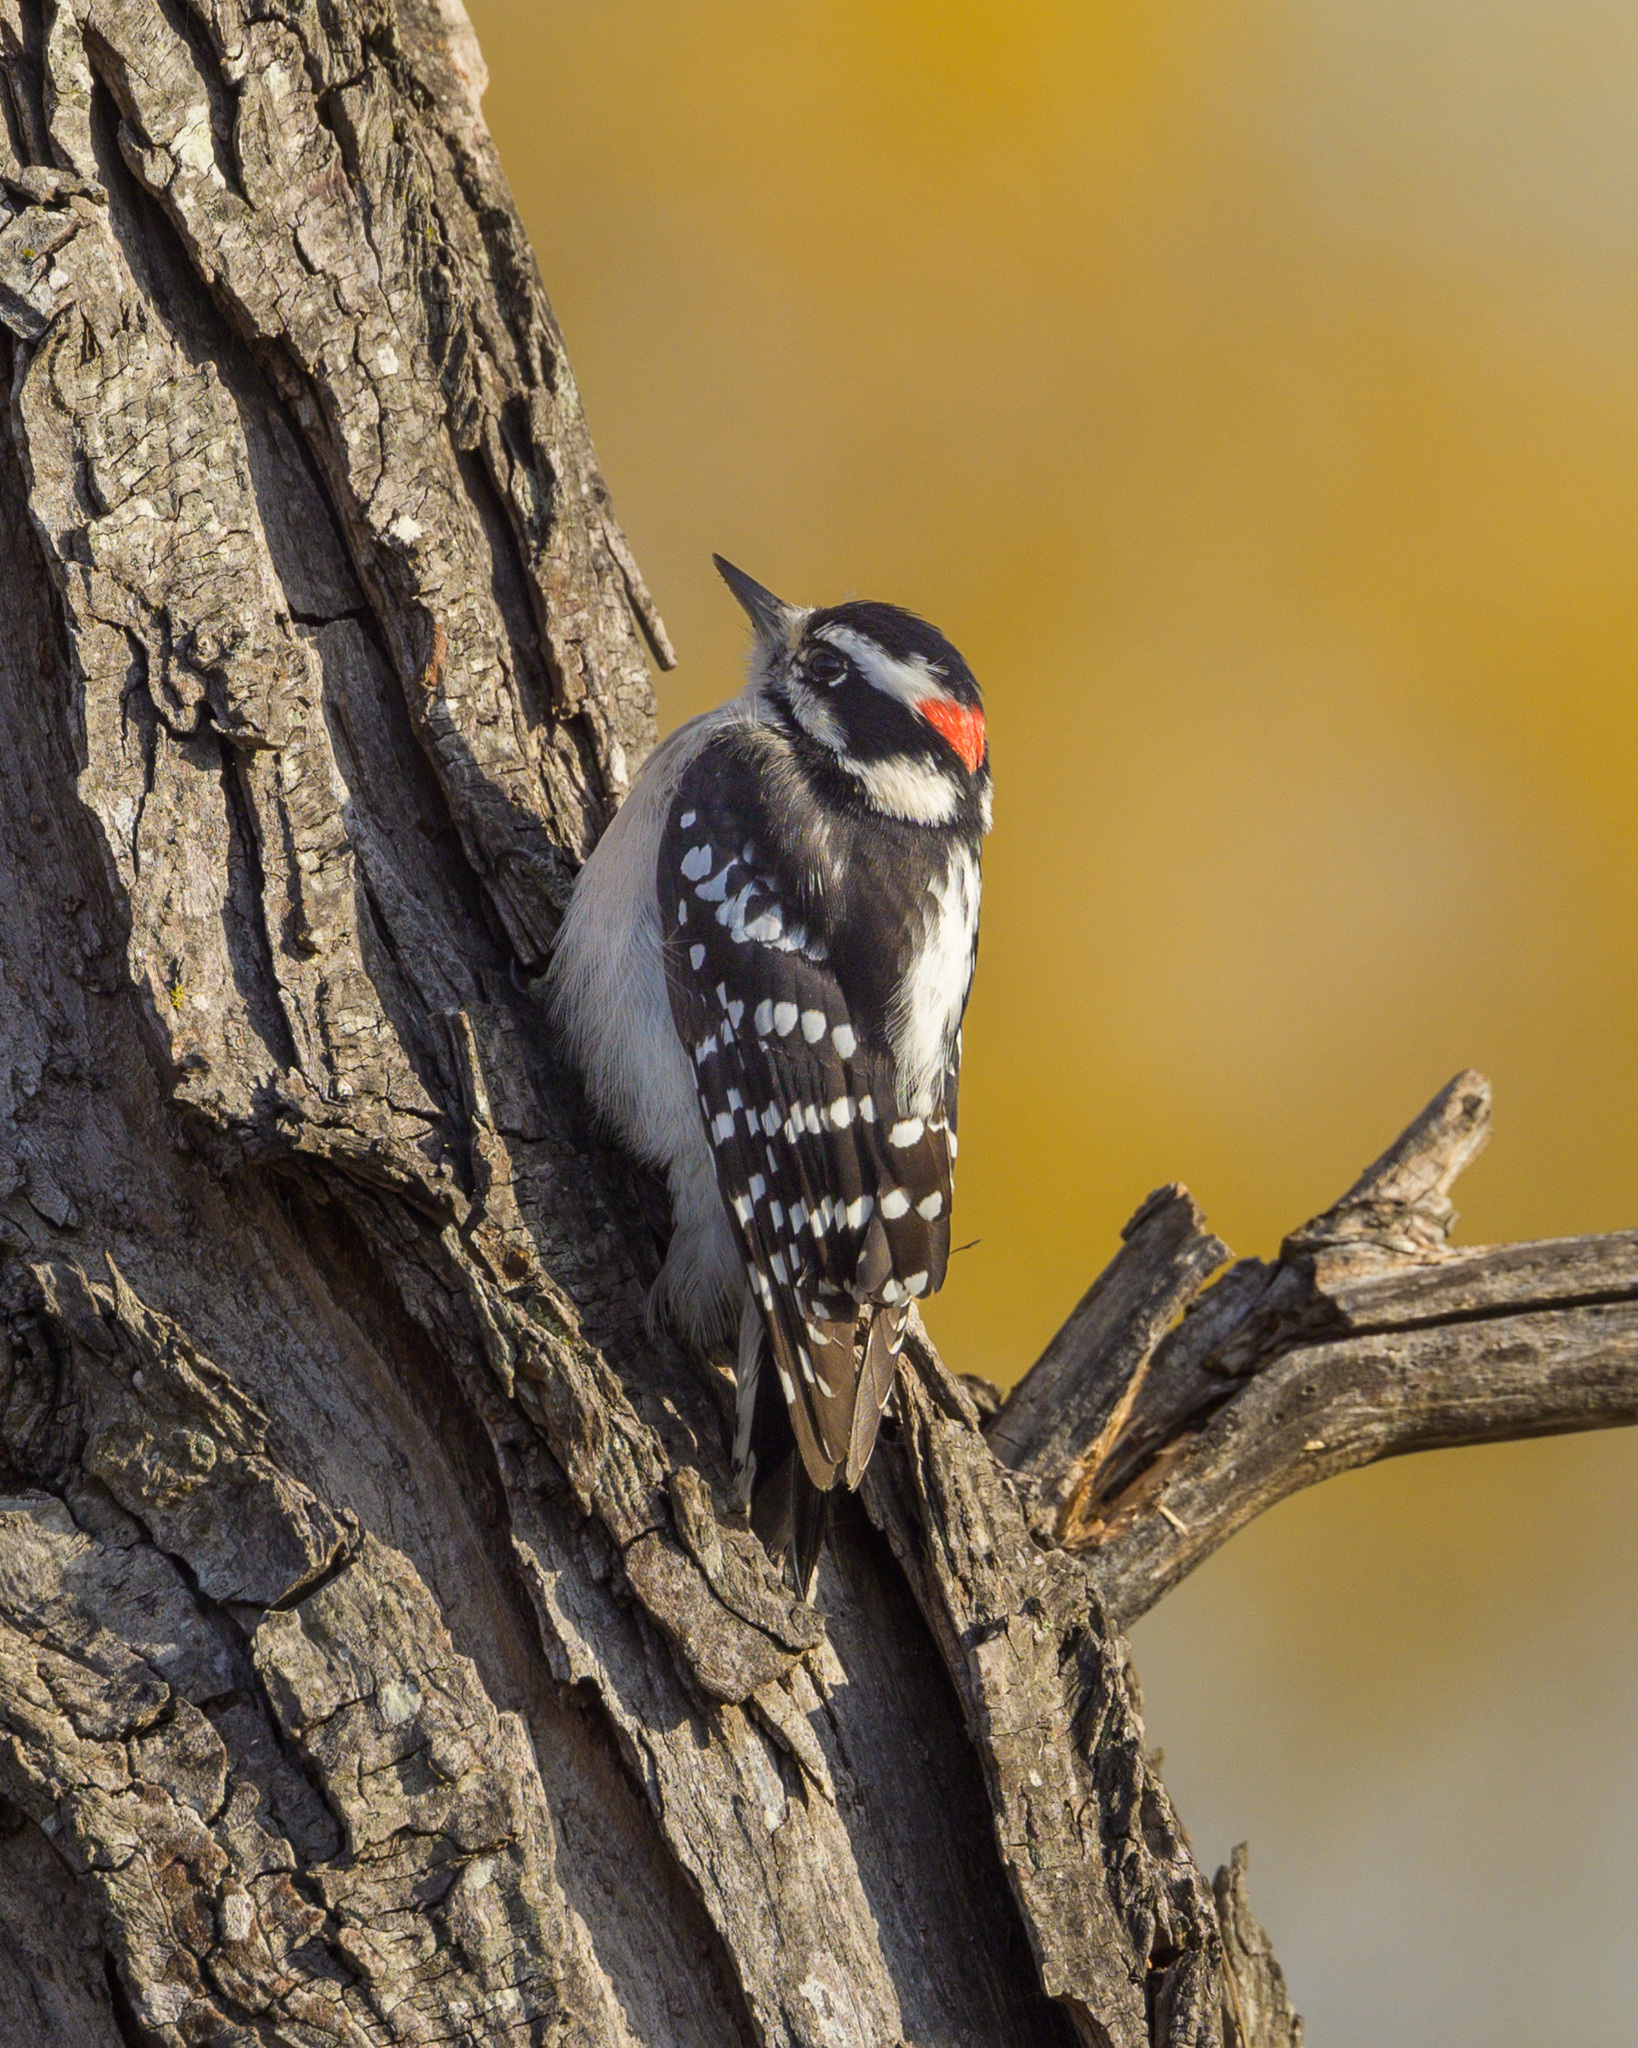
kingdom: Animalia
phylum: Chordata
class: Aves
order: Piciformes
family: Picidae
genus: Dryobates
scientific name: Dryobates pubescens
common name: Downy woodpecker
